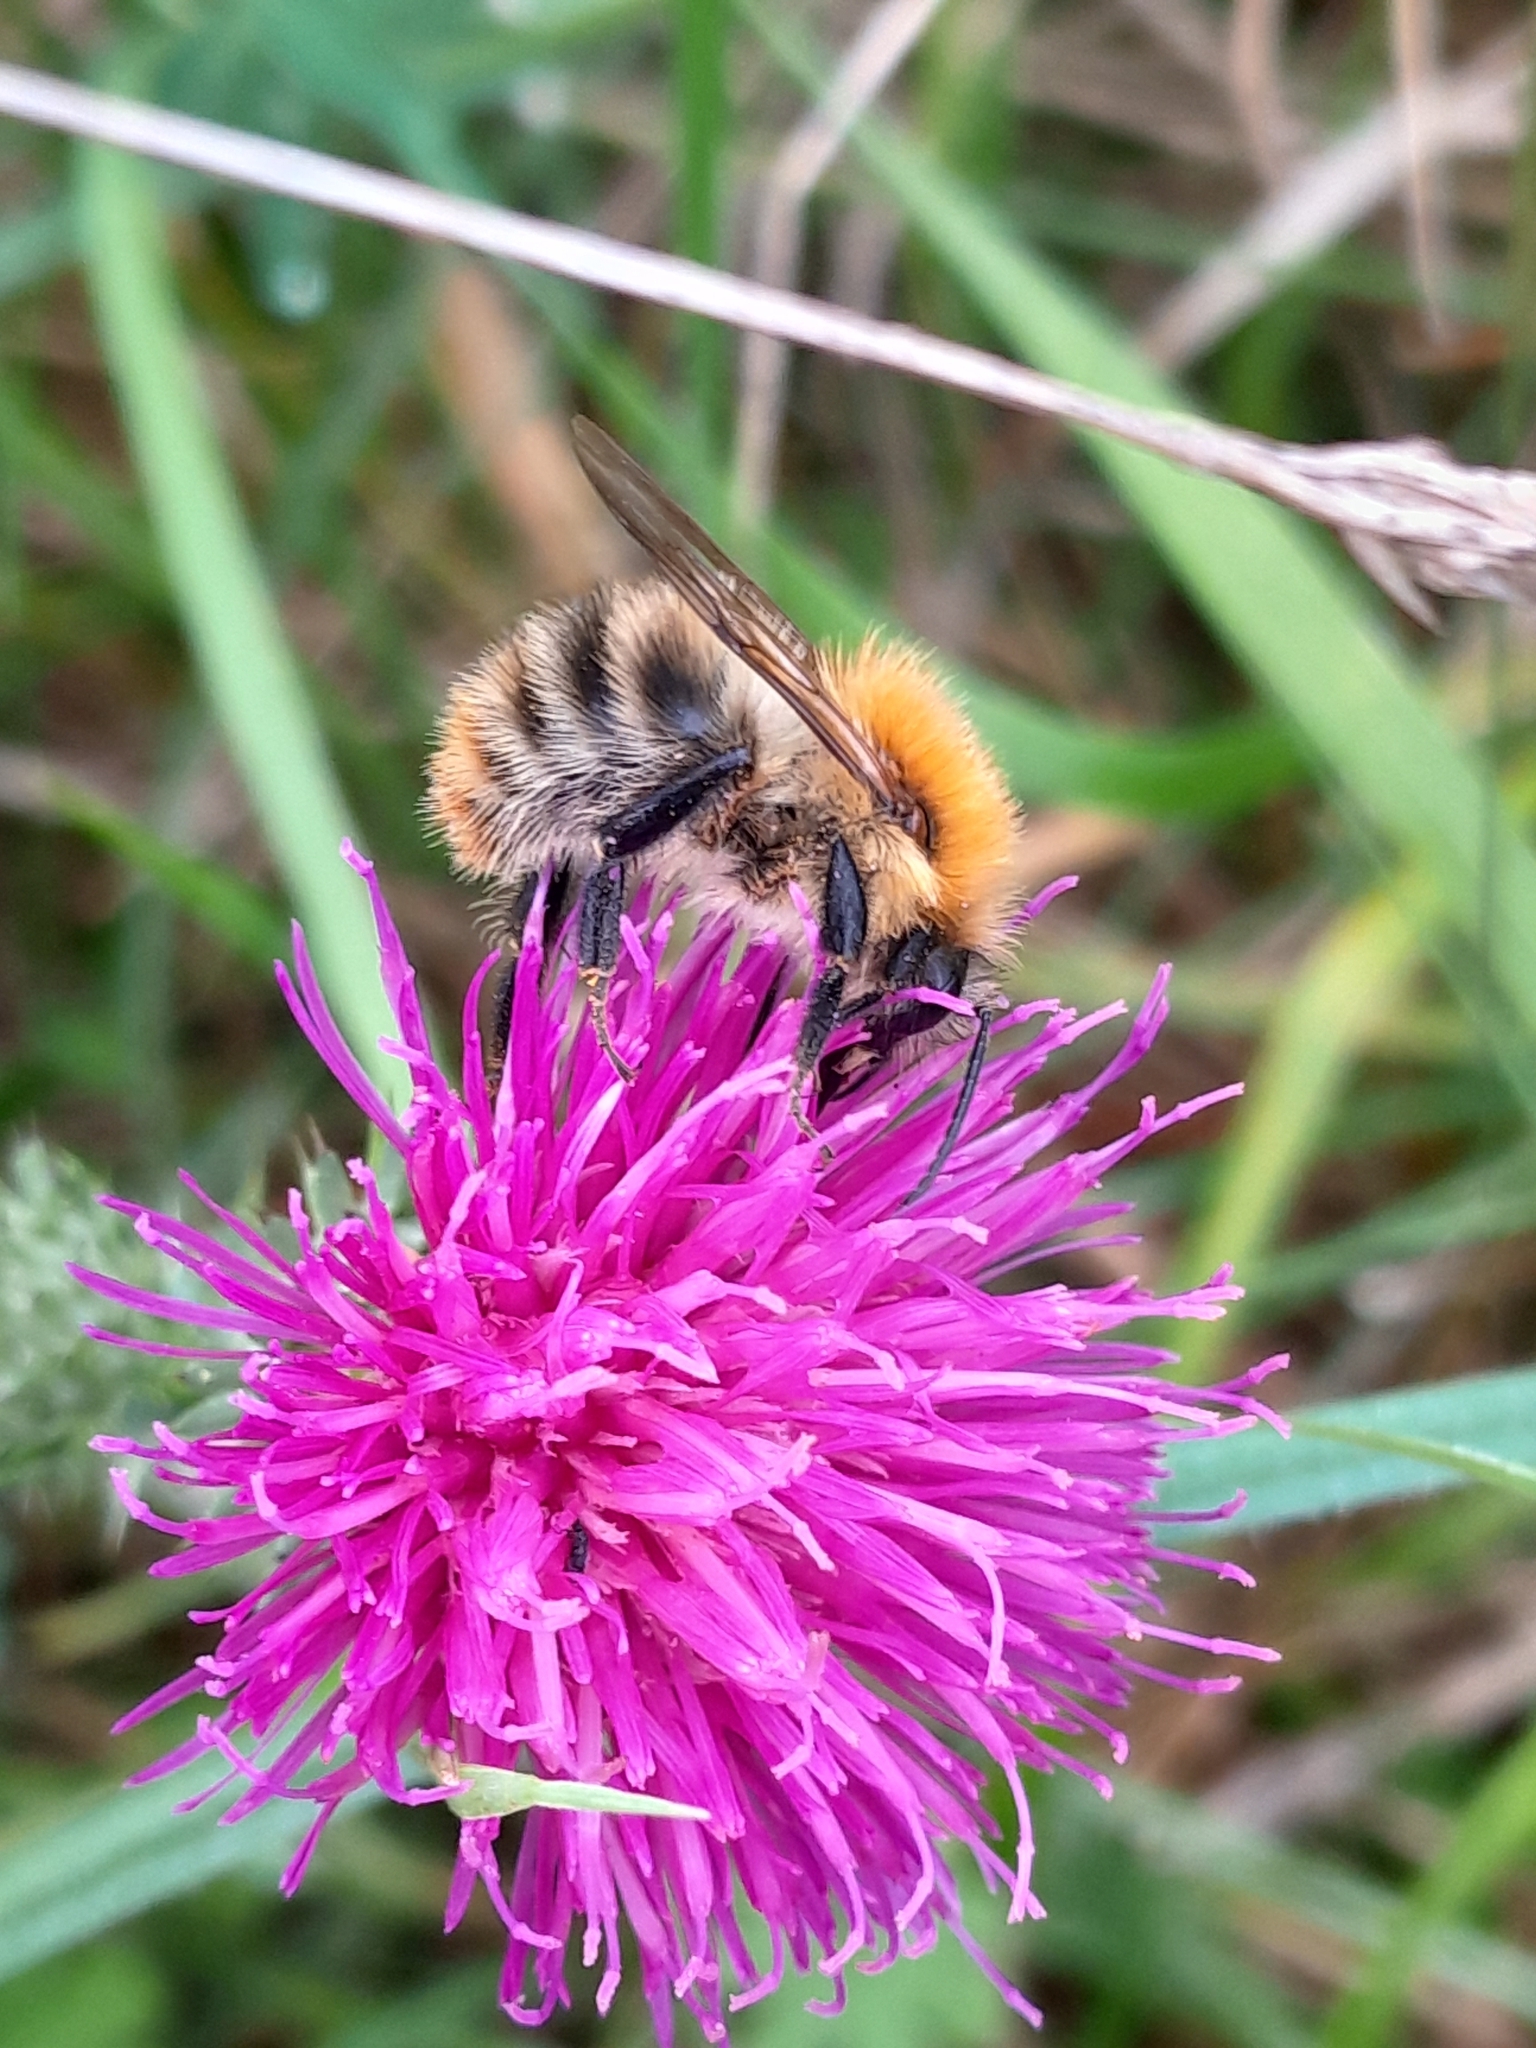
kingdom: Animalia
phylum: Arthropoda
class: Insecta
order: Hymenoptera
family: Apidae
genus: Bombus
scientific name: Bombus pascuorum
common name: Common carder bee
